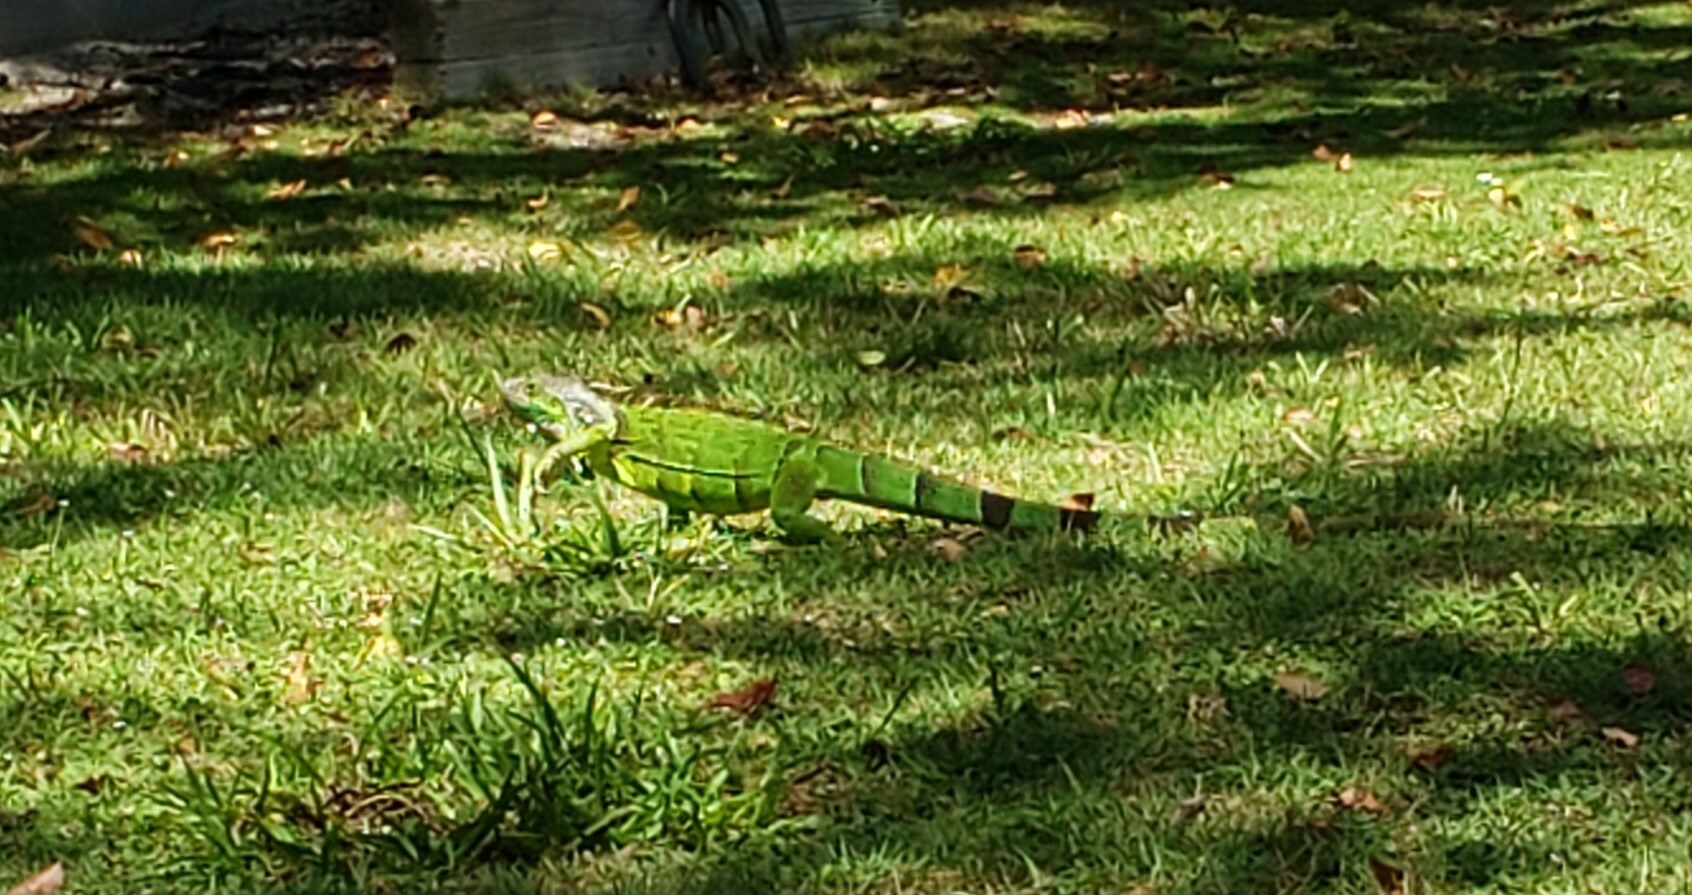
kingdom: Animalia
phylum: Chordata
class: Squamata
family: Iguanidae
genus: Iguana
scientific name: Iguana iguana
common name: Green iguana
